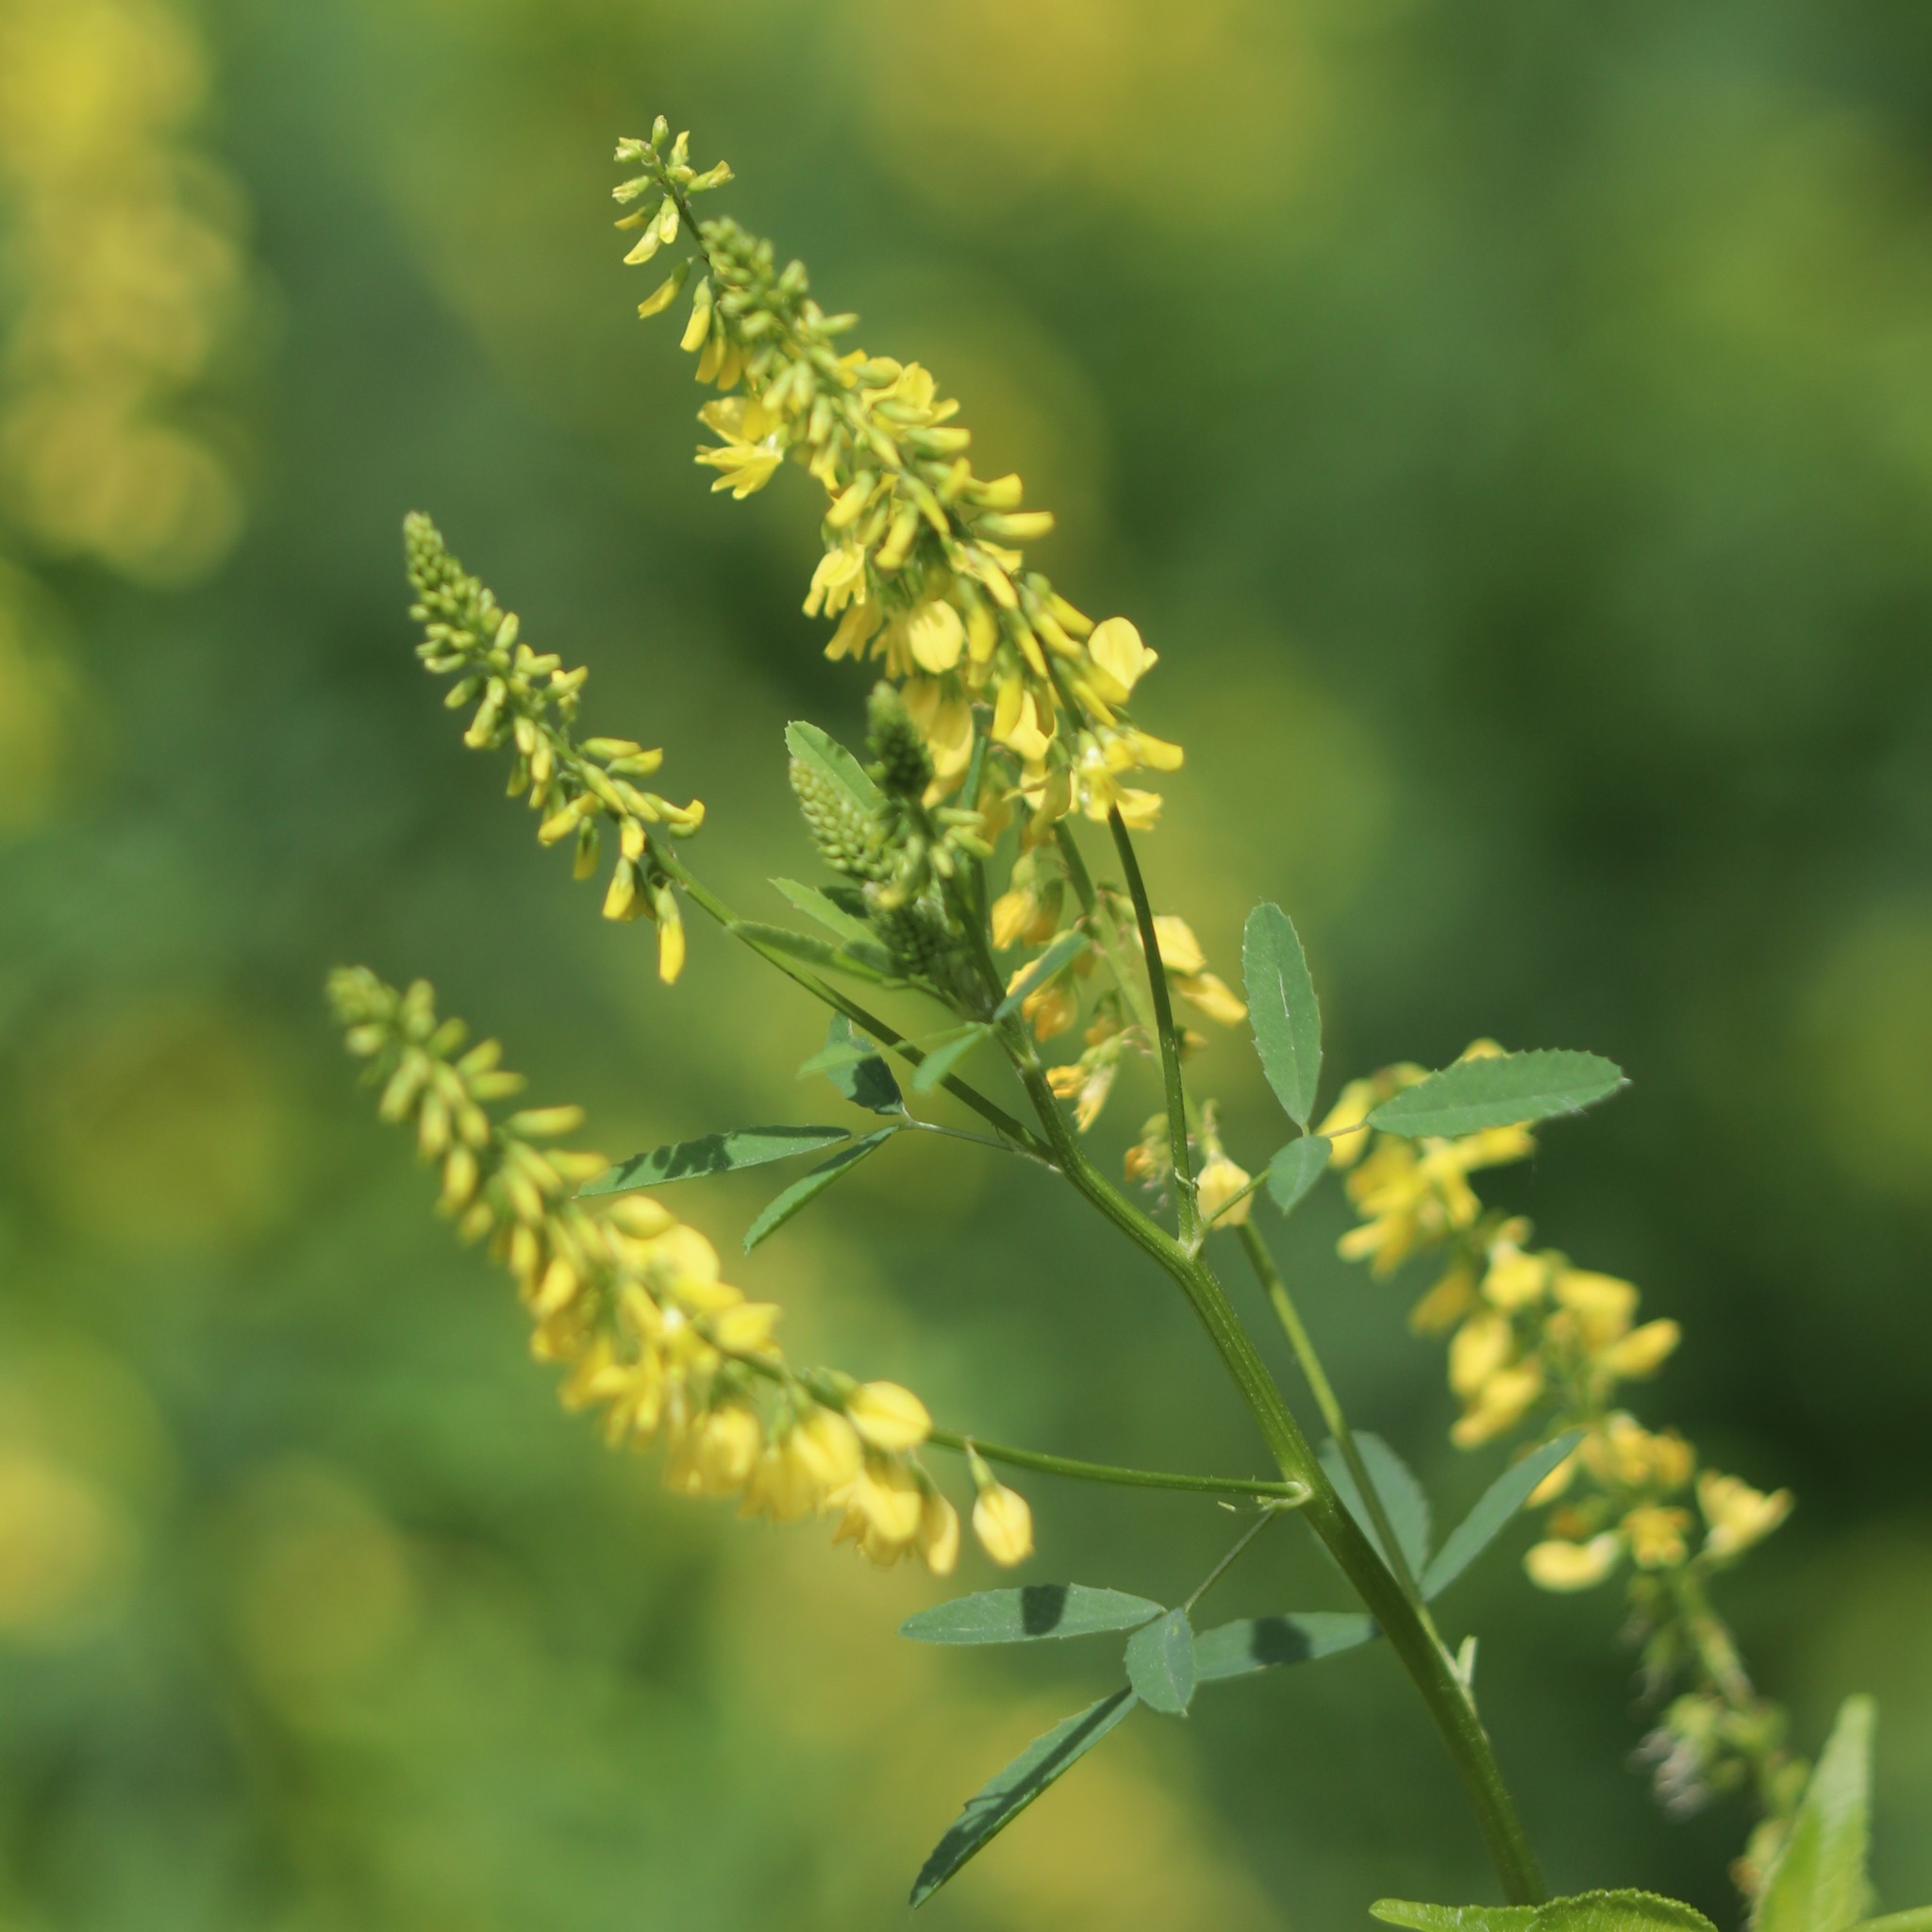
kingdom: Plantae
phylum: Tracheophyta
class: Magnoliopsida
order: Fabales
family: Fabaceae
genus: Melilotus
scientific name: Melilotus officinalis
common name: Sweetclover
